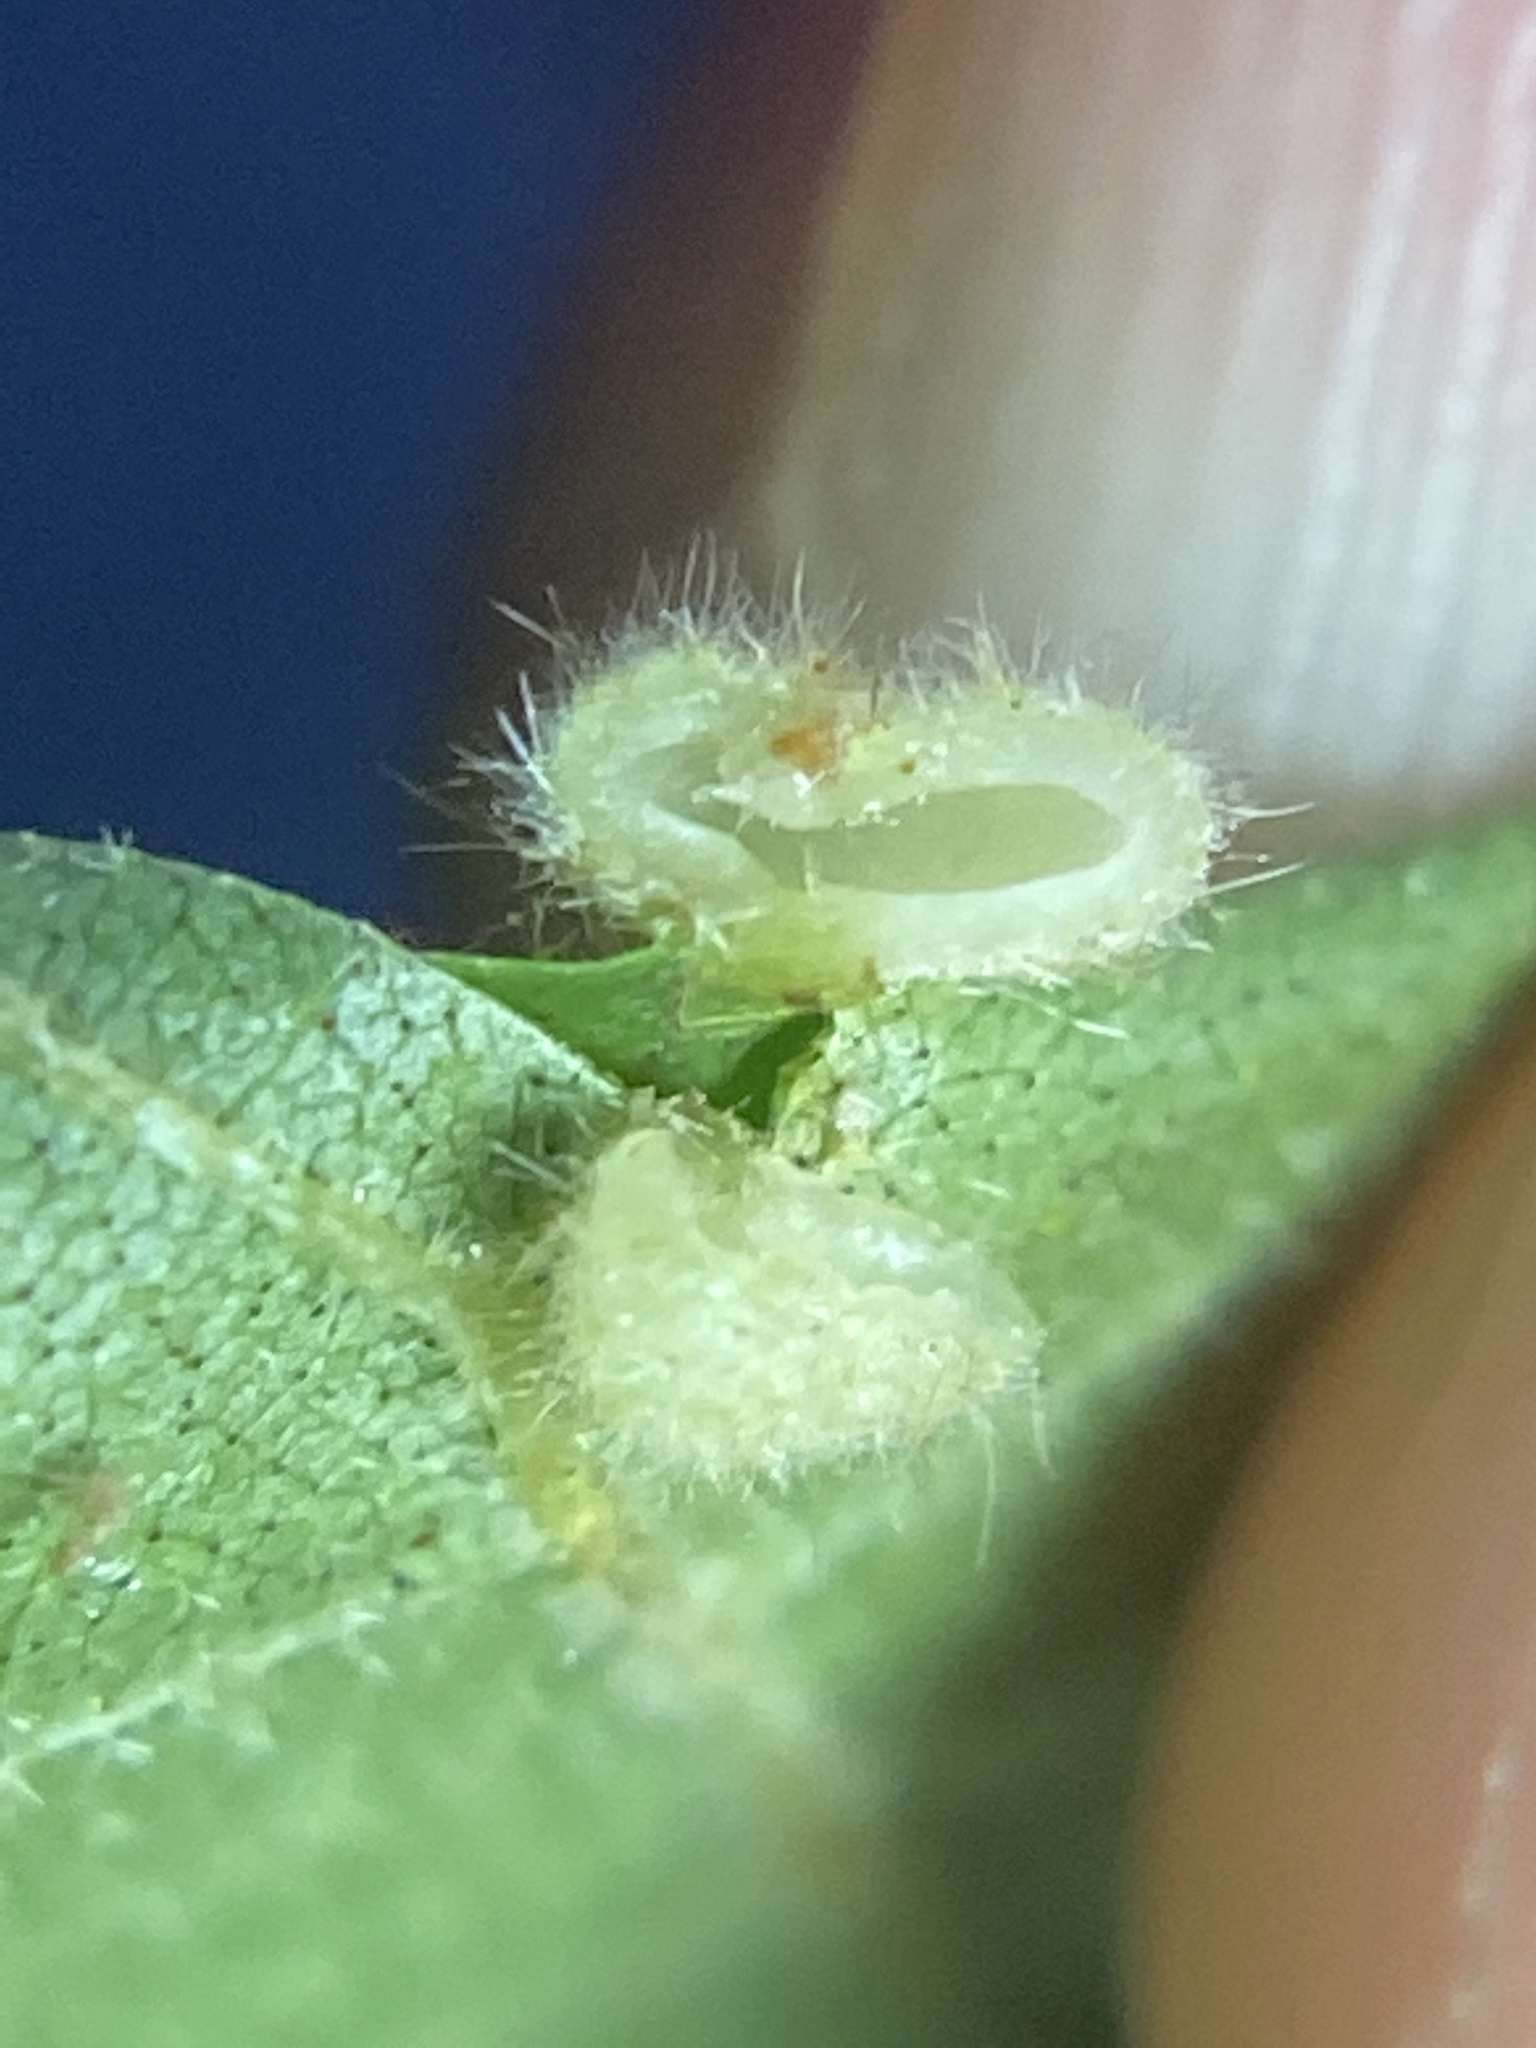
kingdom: Animalia
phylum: Arthropoda
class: Insecta
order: Diptera
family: Cecidomyiidae
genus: Caryomyia
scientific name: Caryomyia thompsoni
